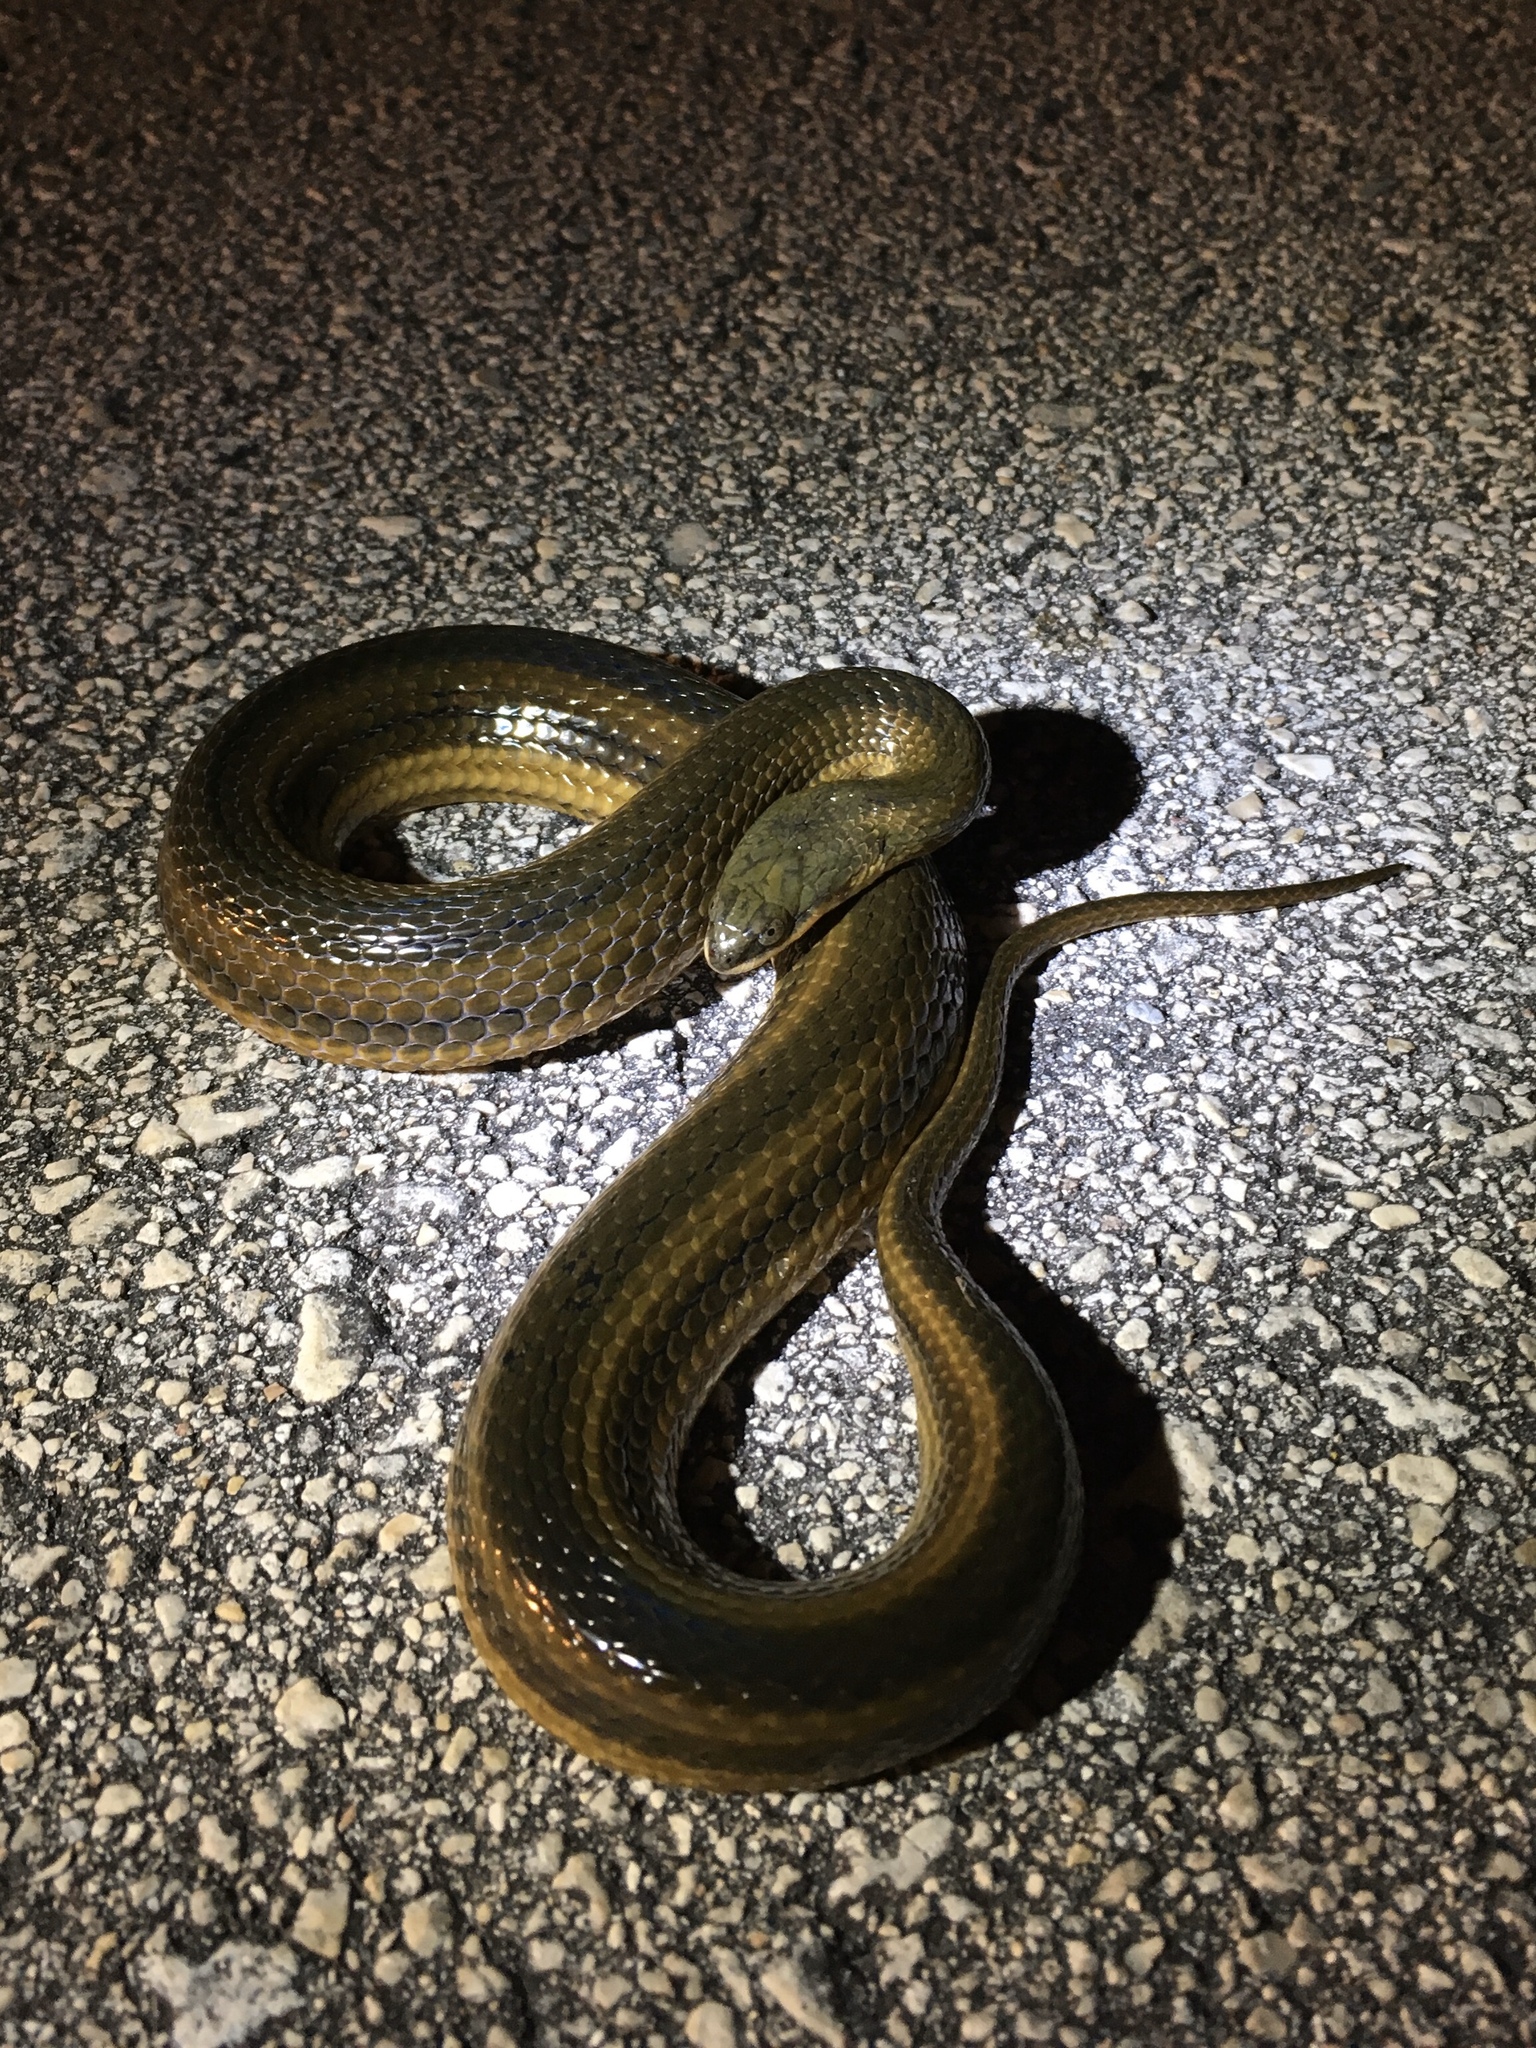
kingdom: Animalia
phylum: Chordata
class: Squamata
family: Colubridae
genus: Liodytes
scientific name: Liodytes alleni
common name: Striped crayfish snake
